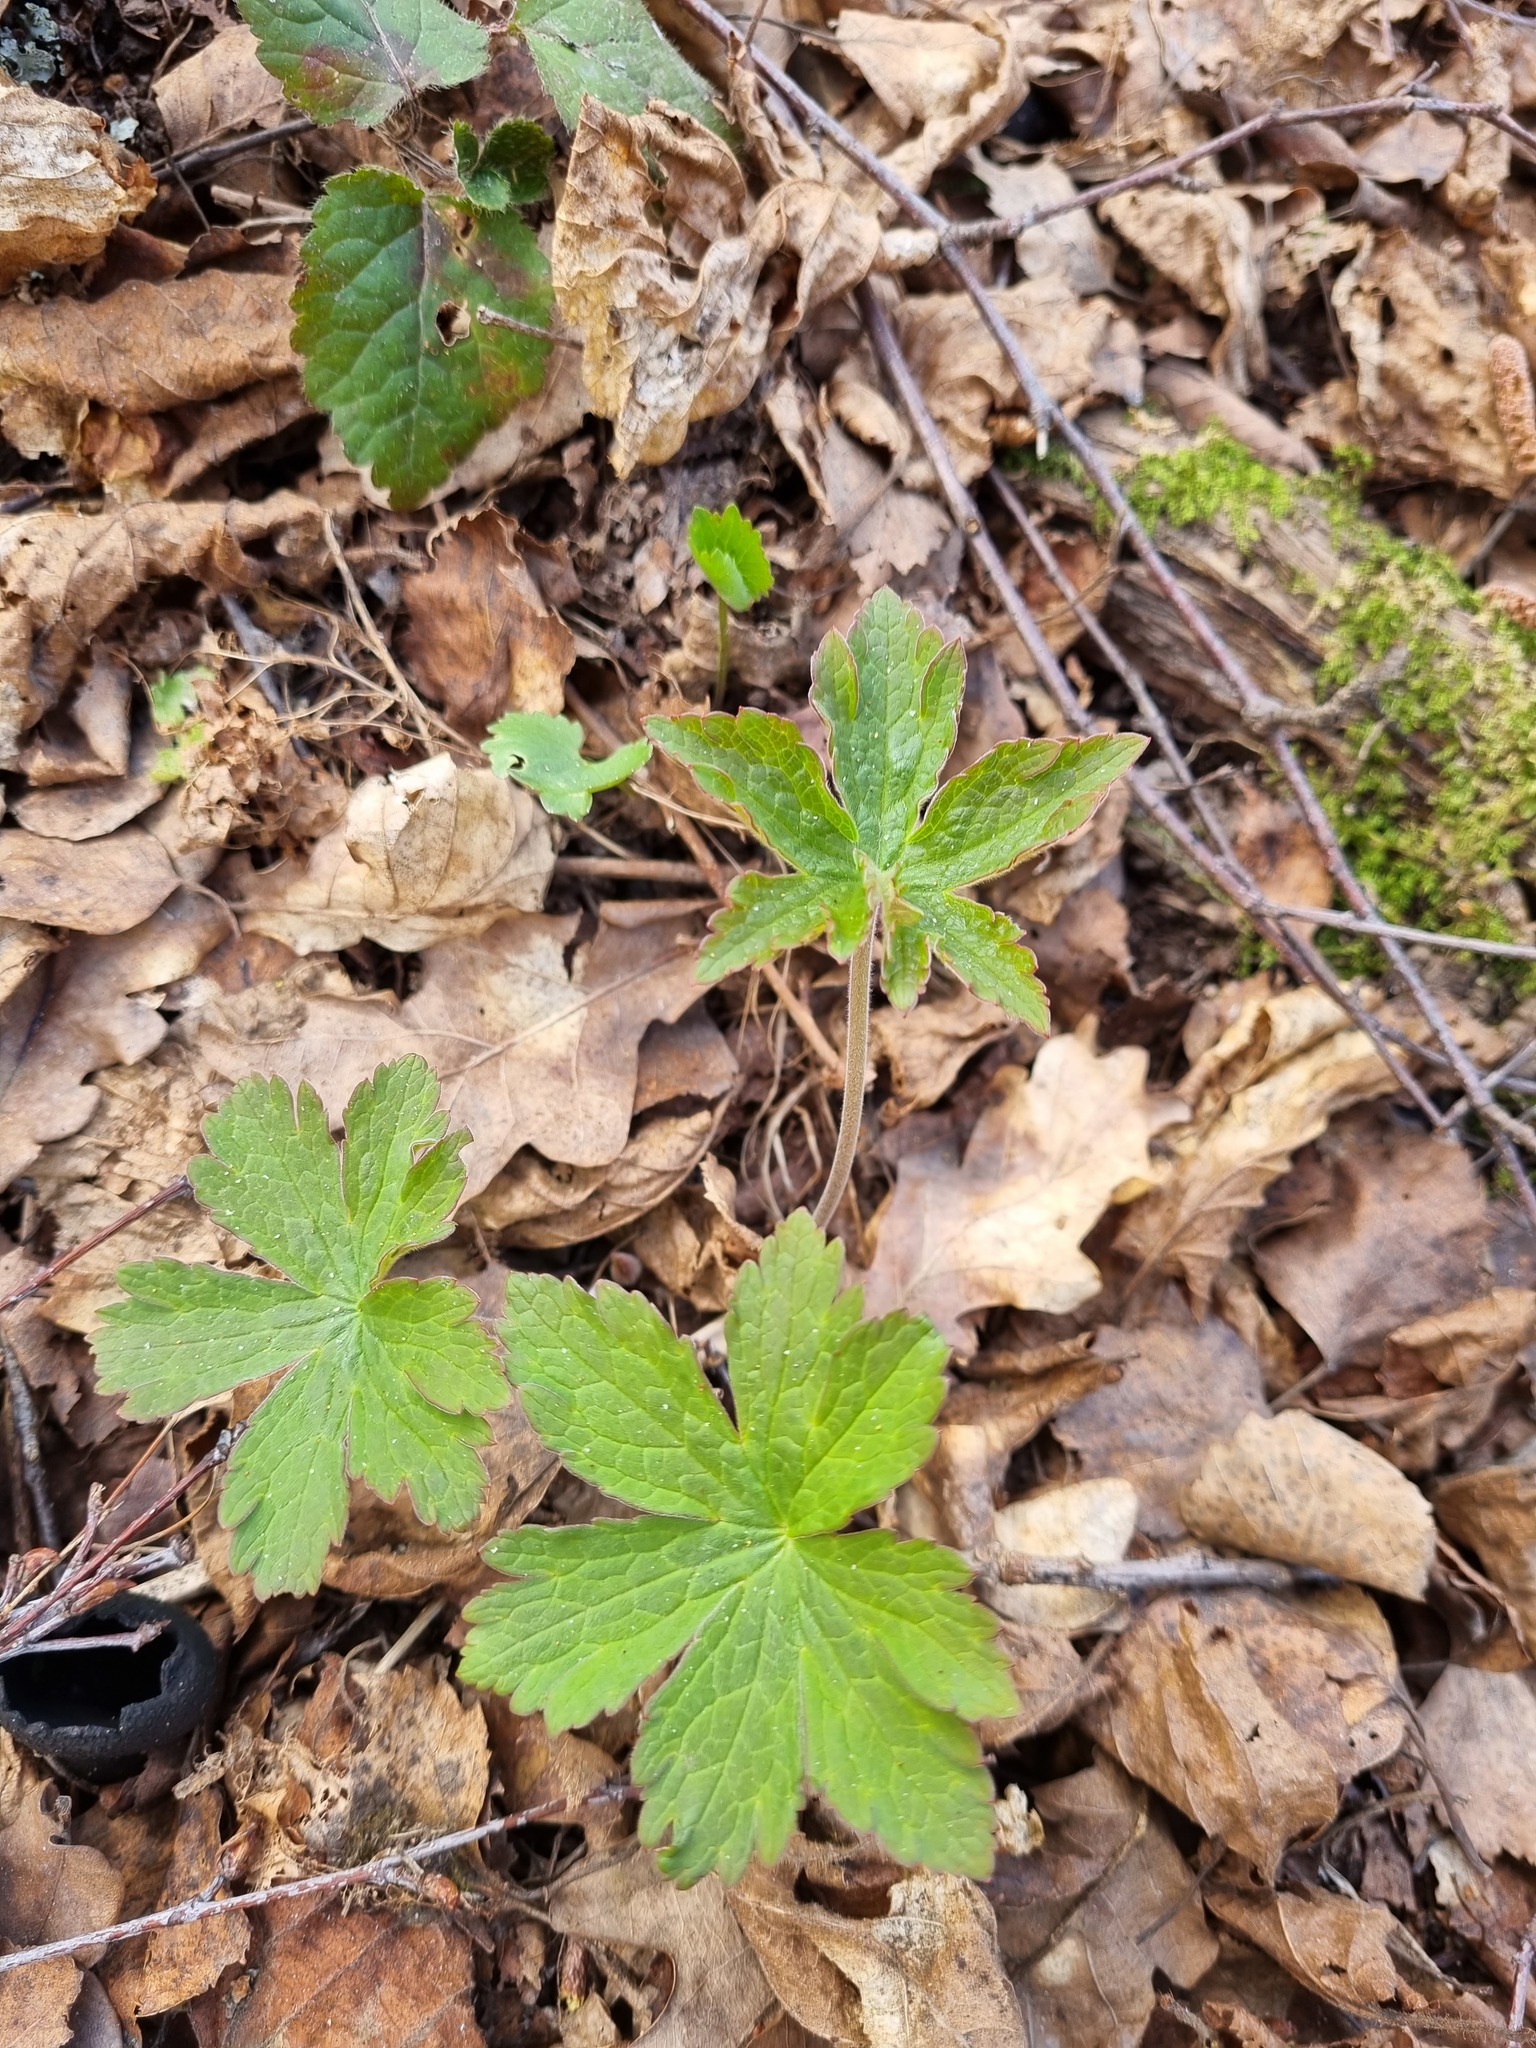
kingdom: Plantae
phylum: Tracheophyta
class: Magnoliopsida
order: Geraniales
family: Geraniaceae
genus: Geranium
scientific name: Geranium sylvaticum
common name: Wood crane's-bill
